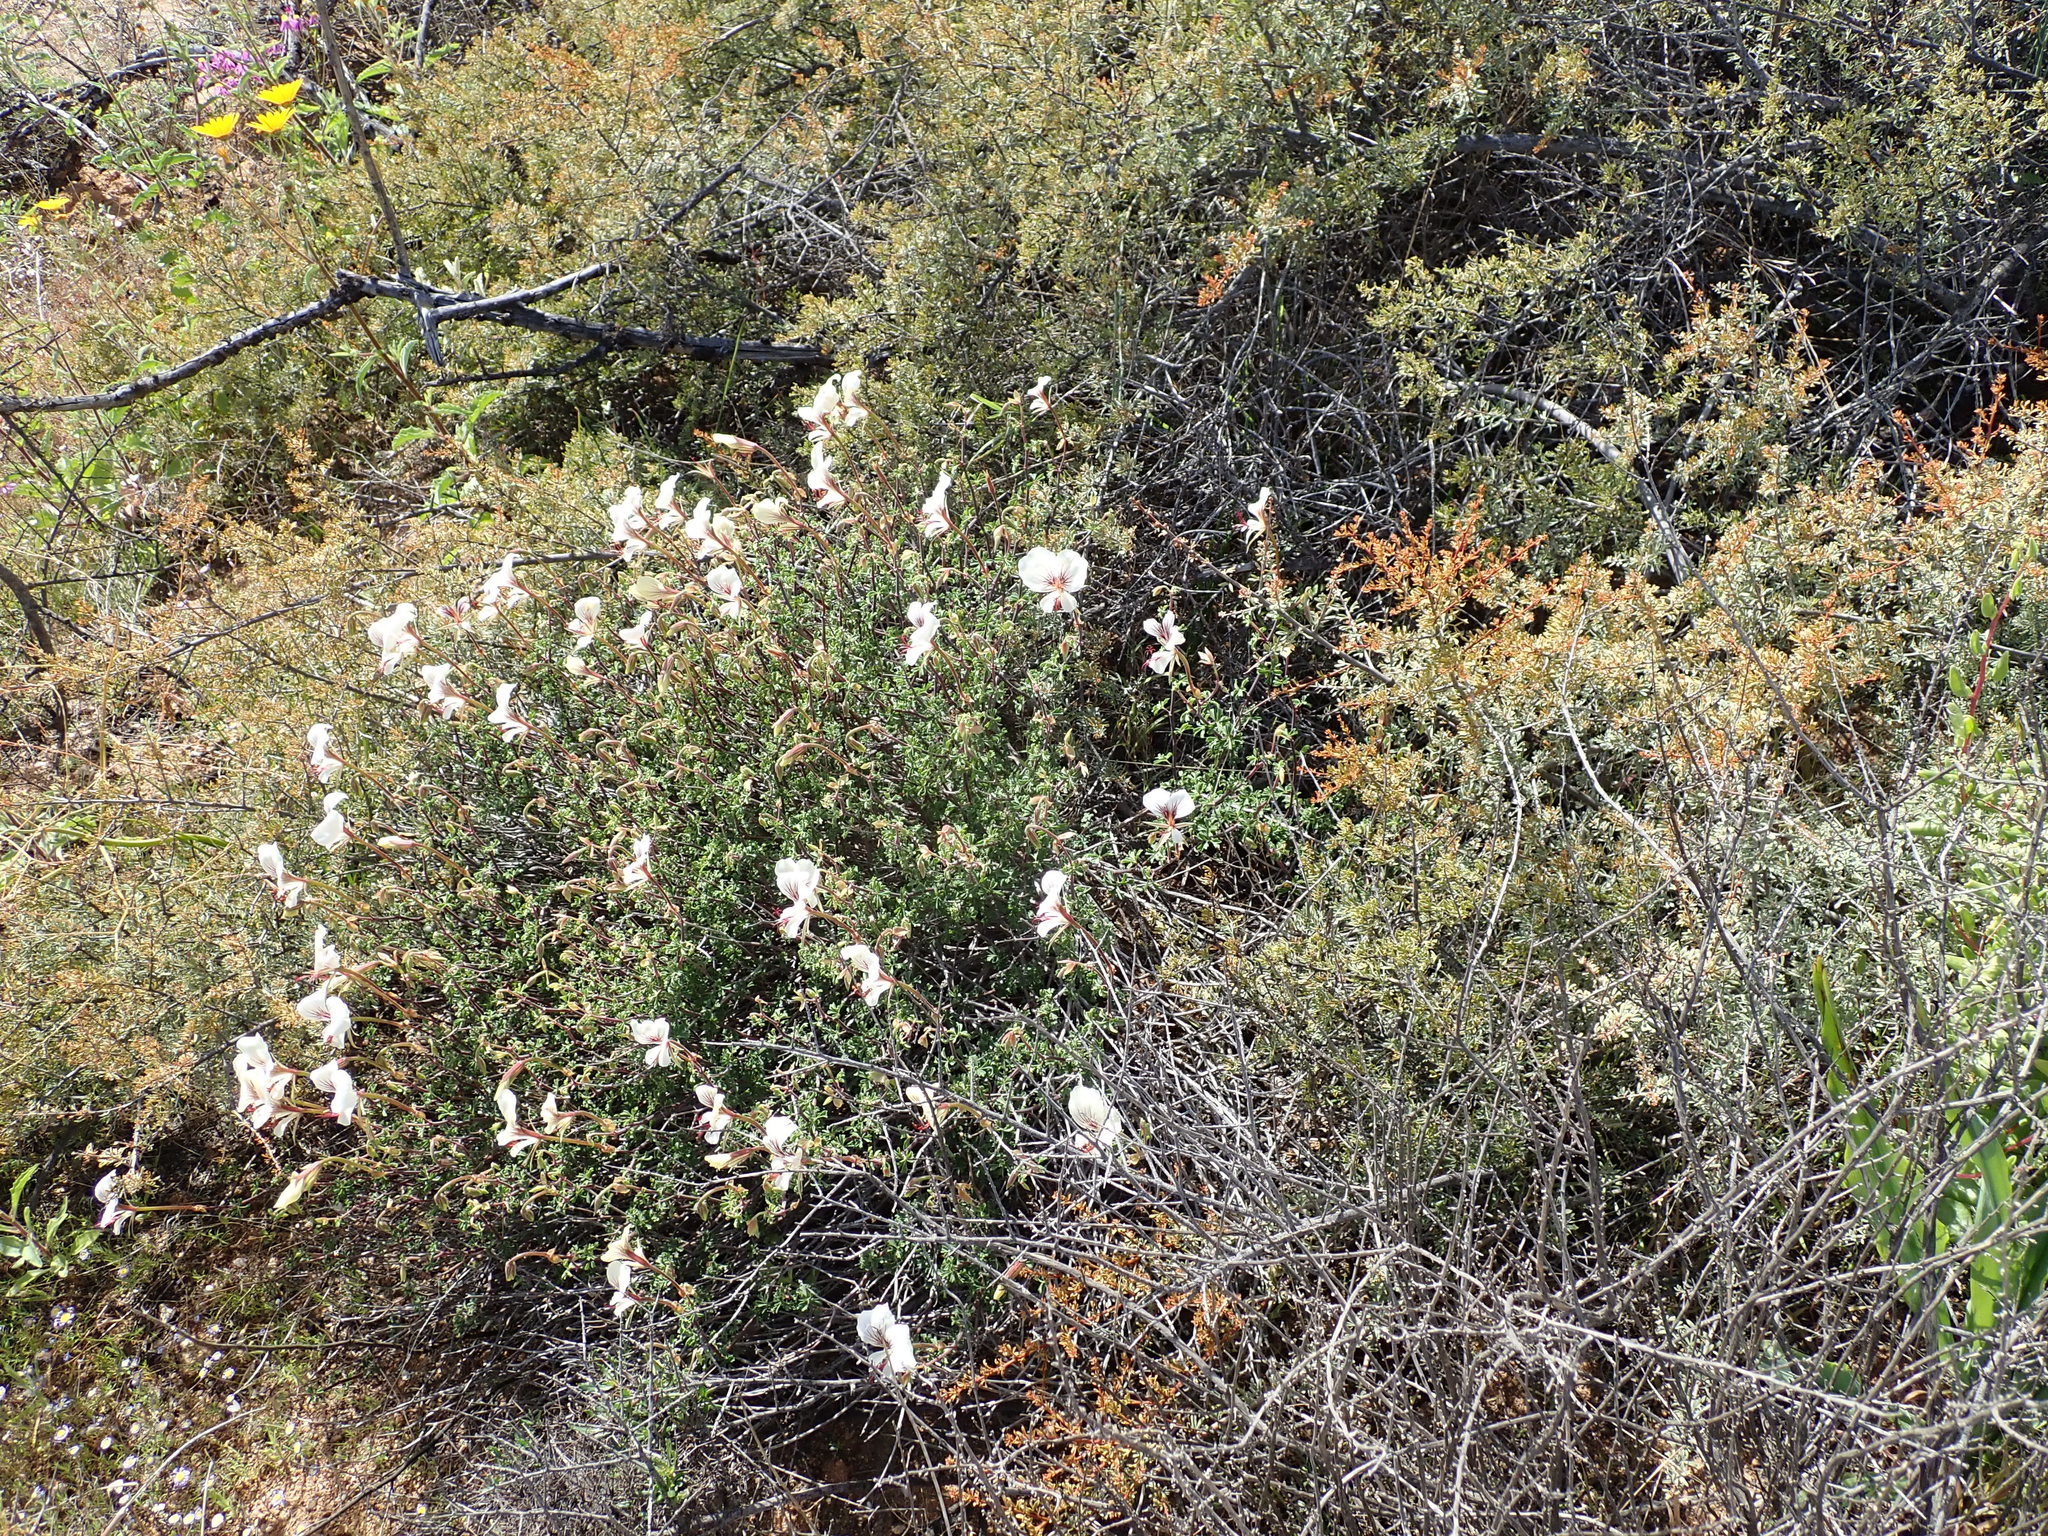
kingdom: Plantae
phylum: Tracheophyta
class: Magnoliopsida
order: Geraniales
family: Geraniaceae
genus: Pelargonium
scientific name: Pelargonium praemorsum
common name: Quinate-leaf pelargonium
